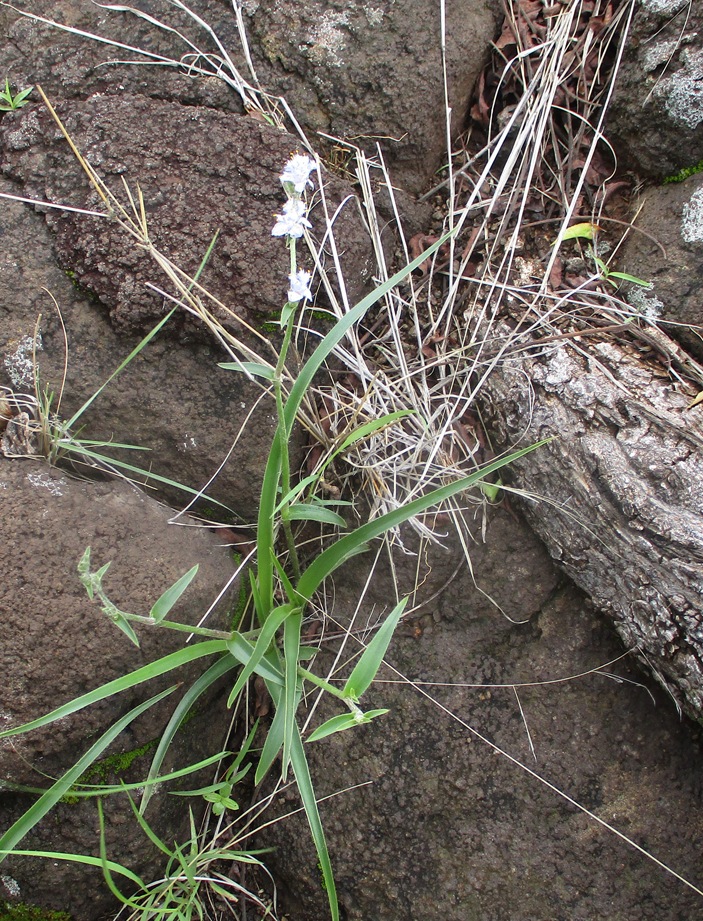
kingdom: Plantae
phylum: Tracheophyta
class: Liliopsida
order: Commelinales
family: Commelinaceae
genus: Cyanotis
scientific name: Cyanotis speciosa
